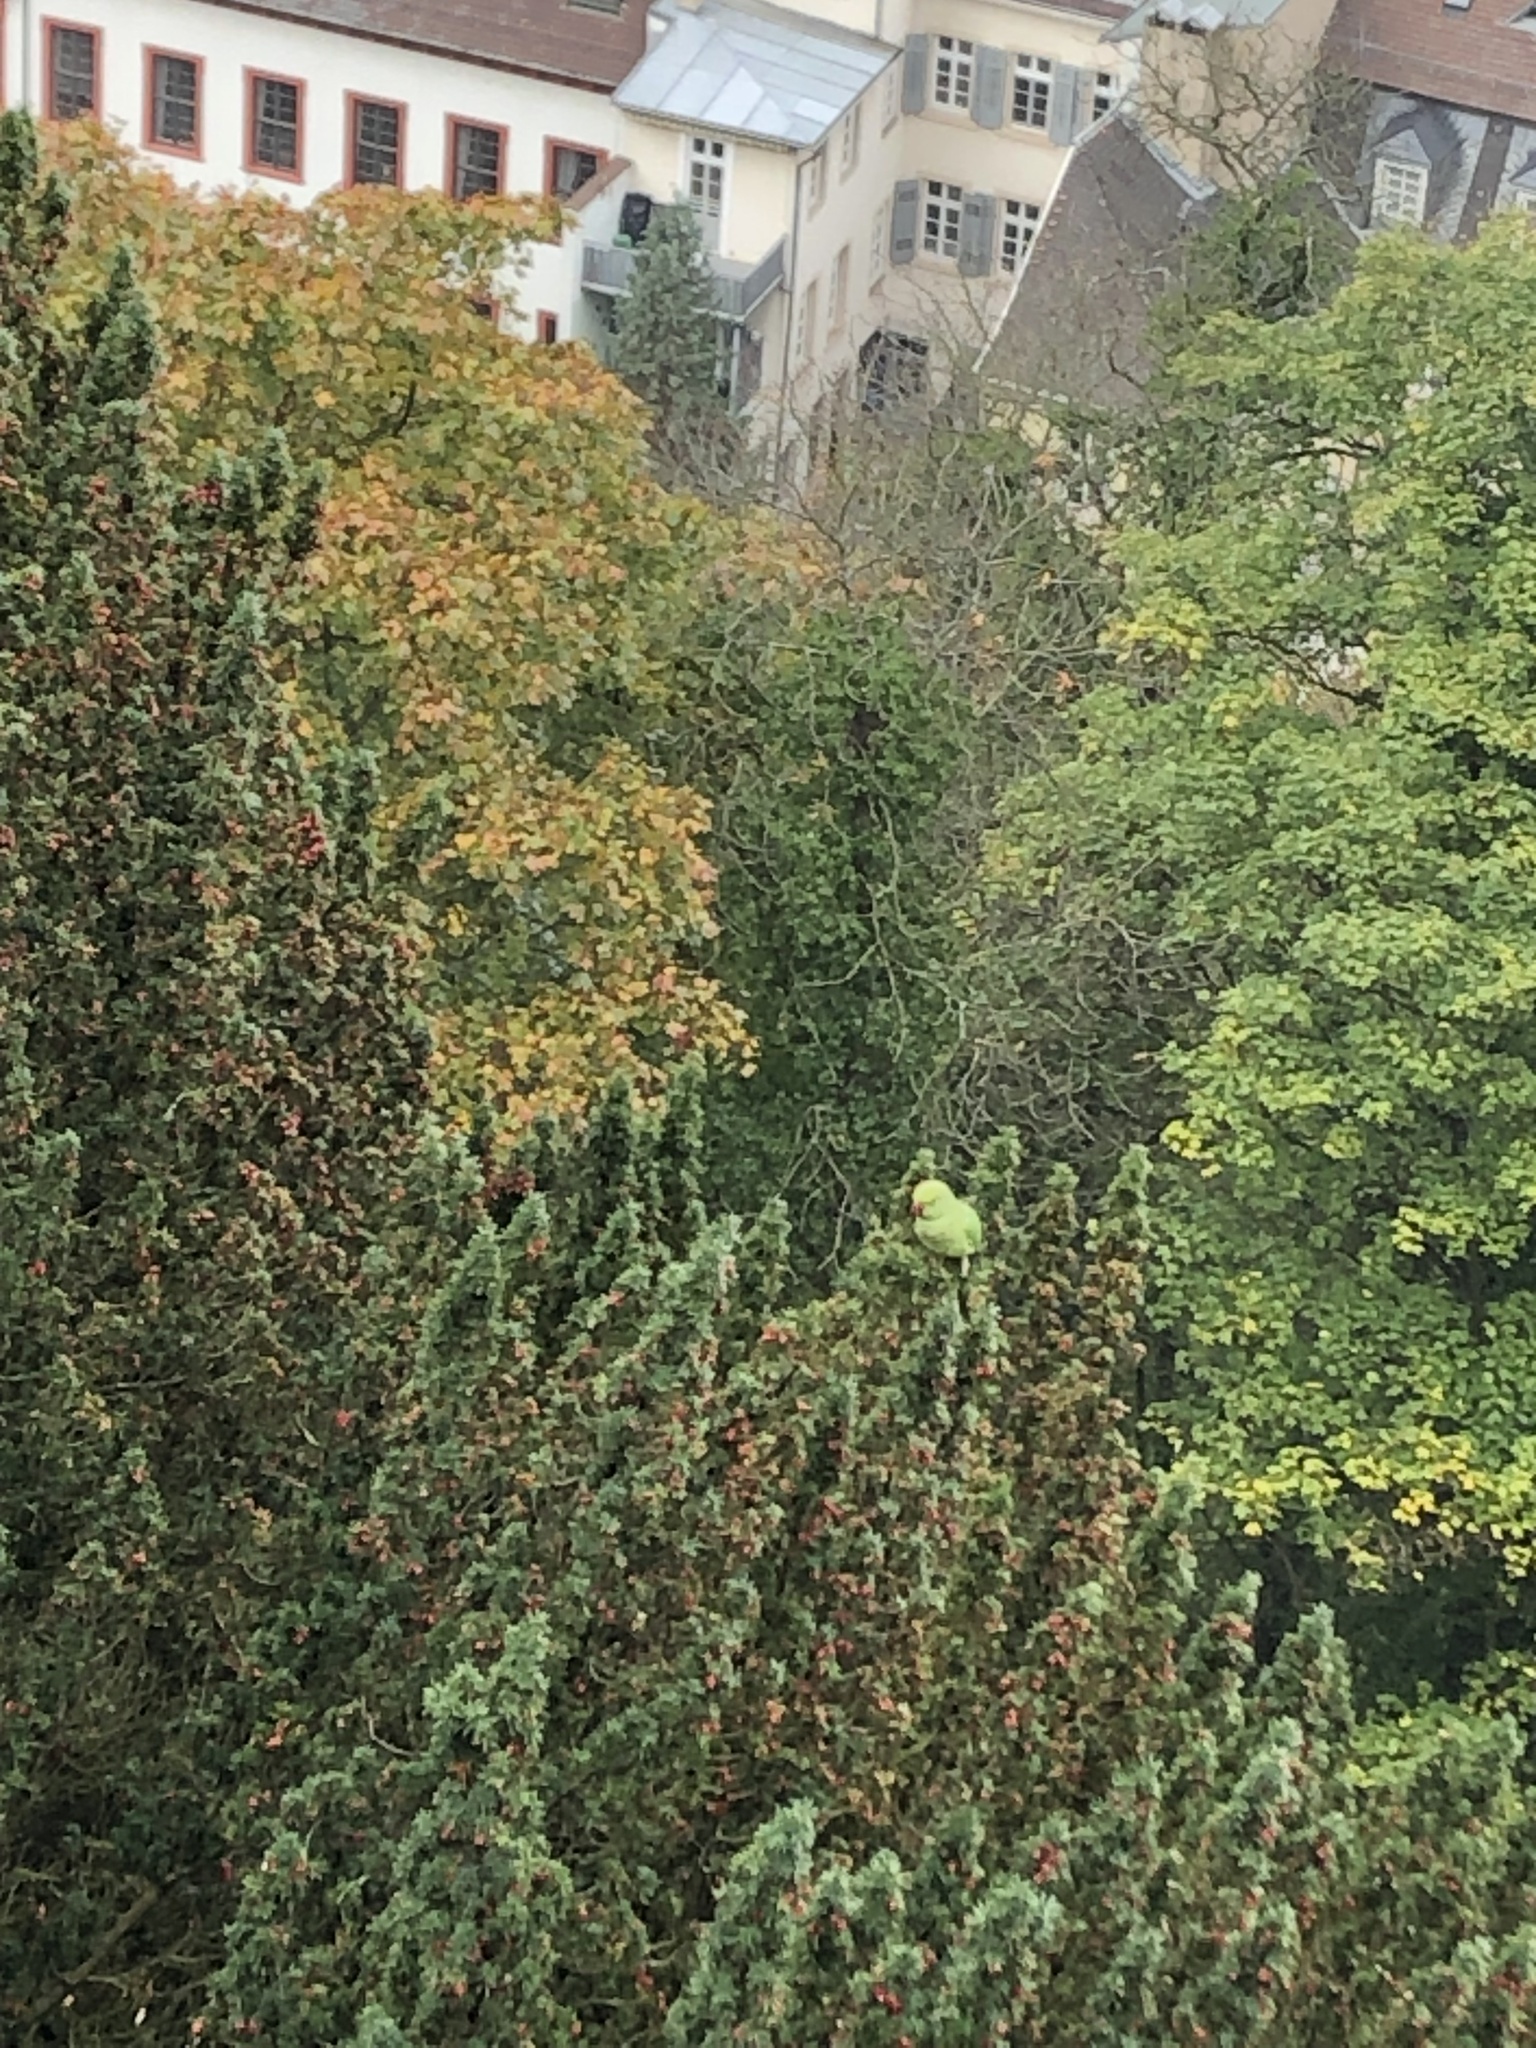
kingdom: Animalia
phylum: Chordata
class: Aves
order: Psittaciformes
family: Psittacidae
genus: Psittacula
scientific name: Psittacula krameri
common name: Rose-ringed parakeet
